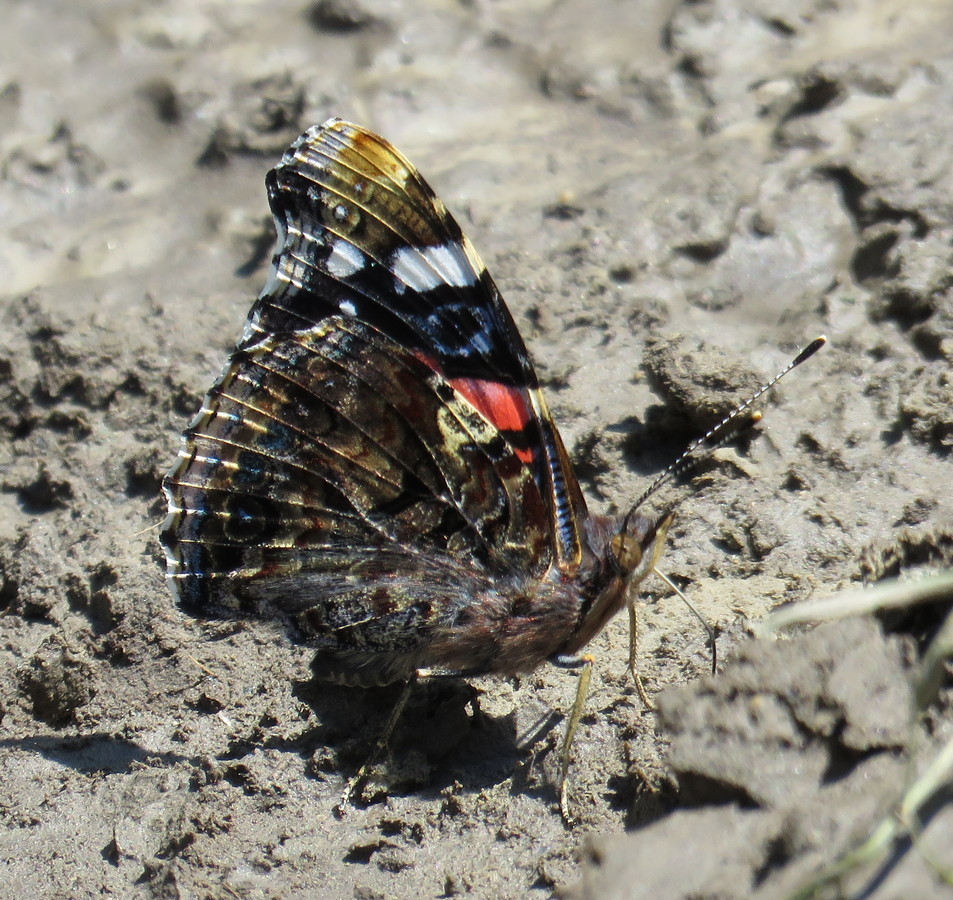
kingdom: Animalia
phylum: Arthropoda
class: Insecta
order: Lepidoptera
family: Nymphalidae
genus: Vanessa
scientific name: Vanessa atalanta
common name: Red admiral
